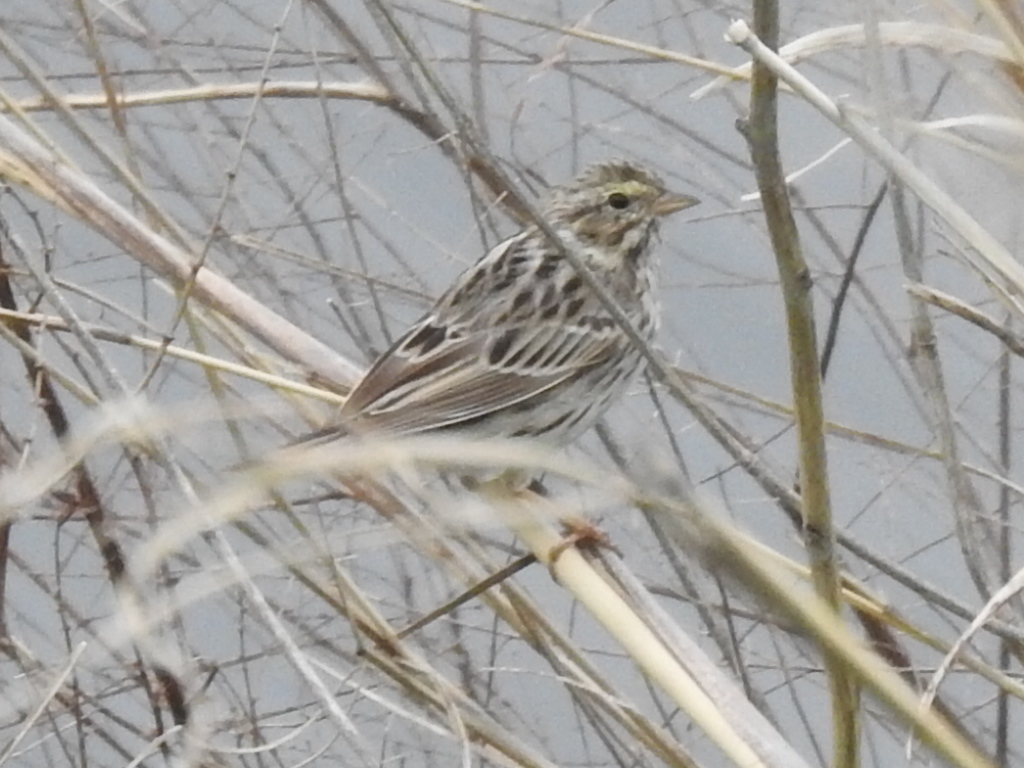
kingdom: Animalia
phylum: Chordata
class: Aves
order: Passeriformes
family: Passerellidae
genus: Passerculus
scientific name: Passerculus sandwichensis
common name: Savannah sparrow
